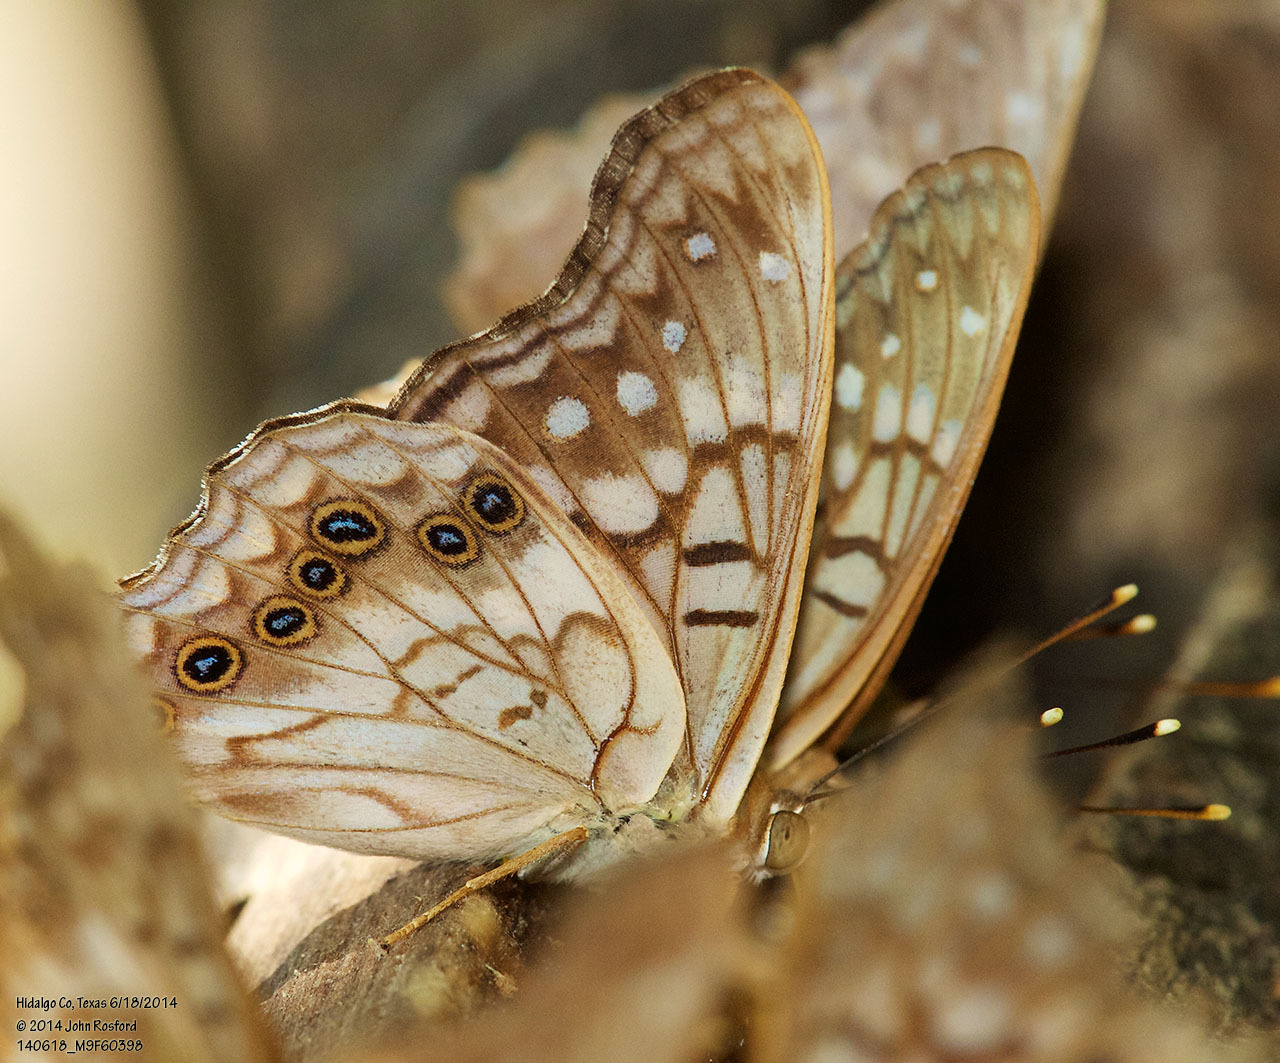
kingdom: Animalia
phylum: Arthropoda
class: Insecta
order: Lepidoptera
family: Nymphalidae
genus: Asterocampa
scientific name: Asterocampa clyton
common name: Tawny emperor
